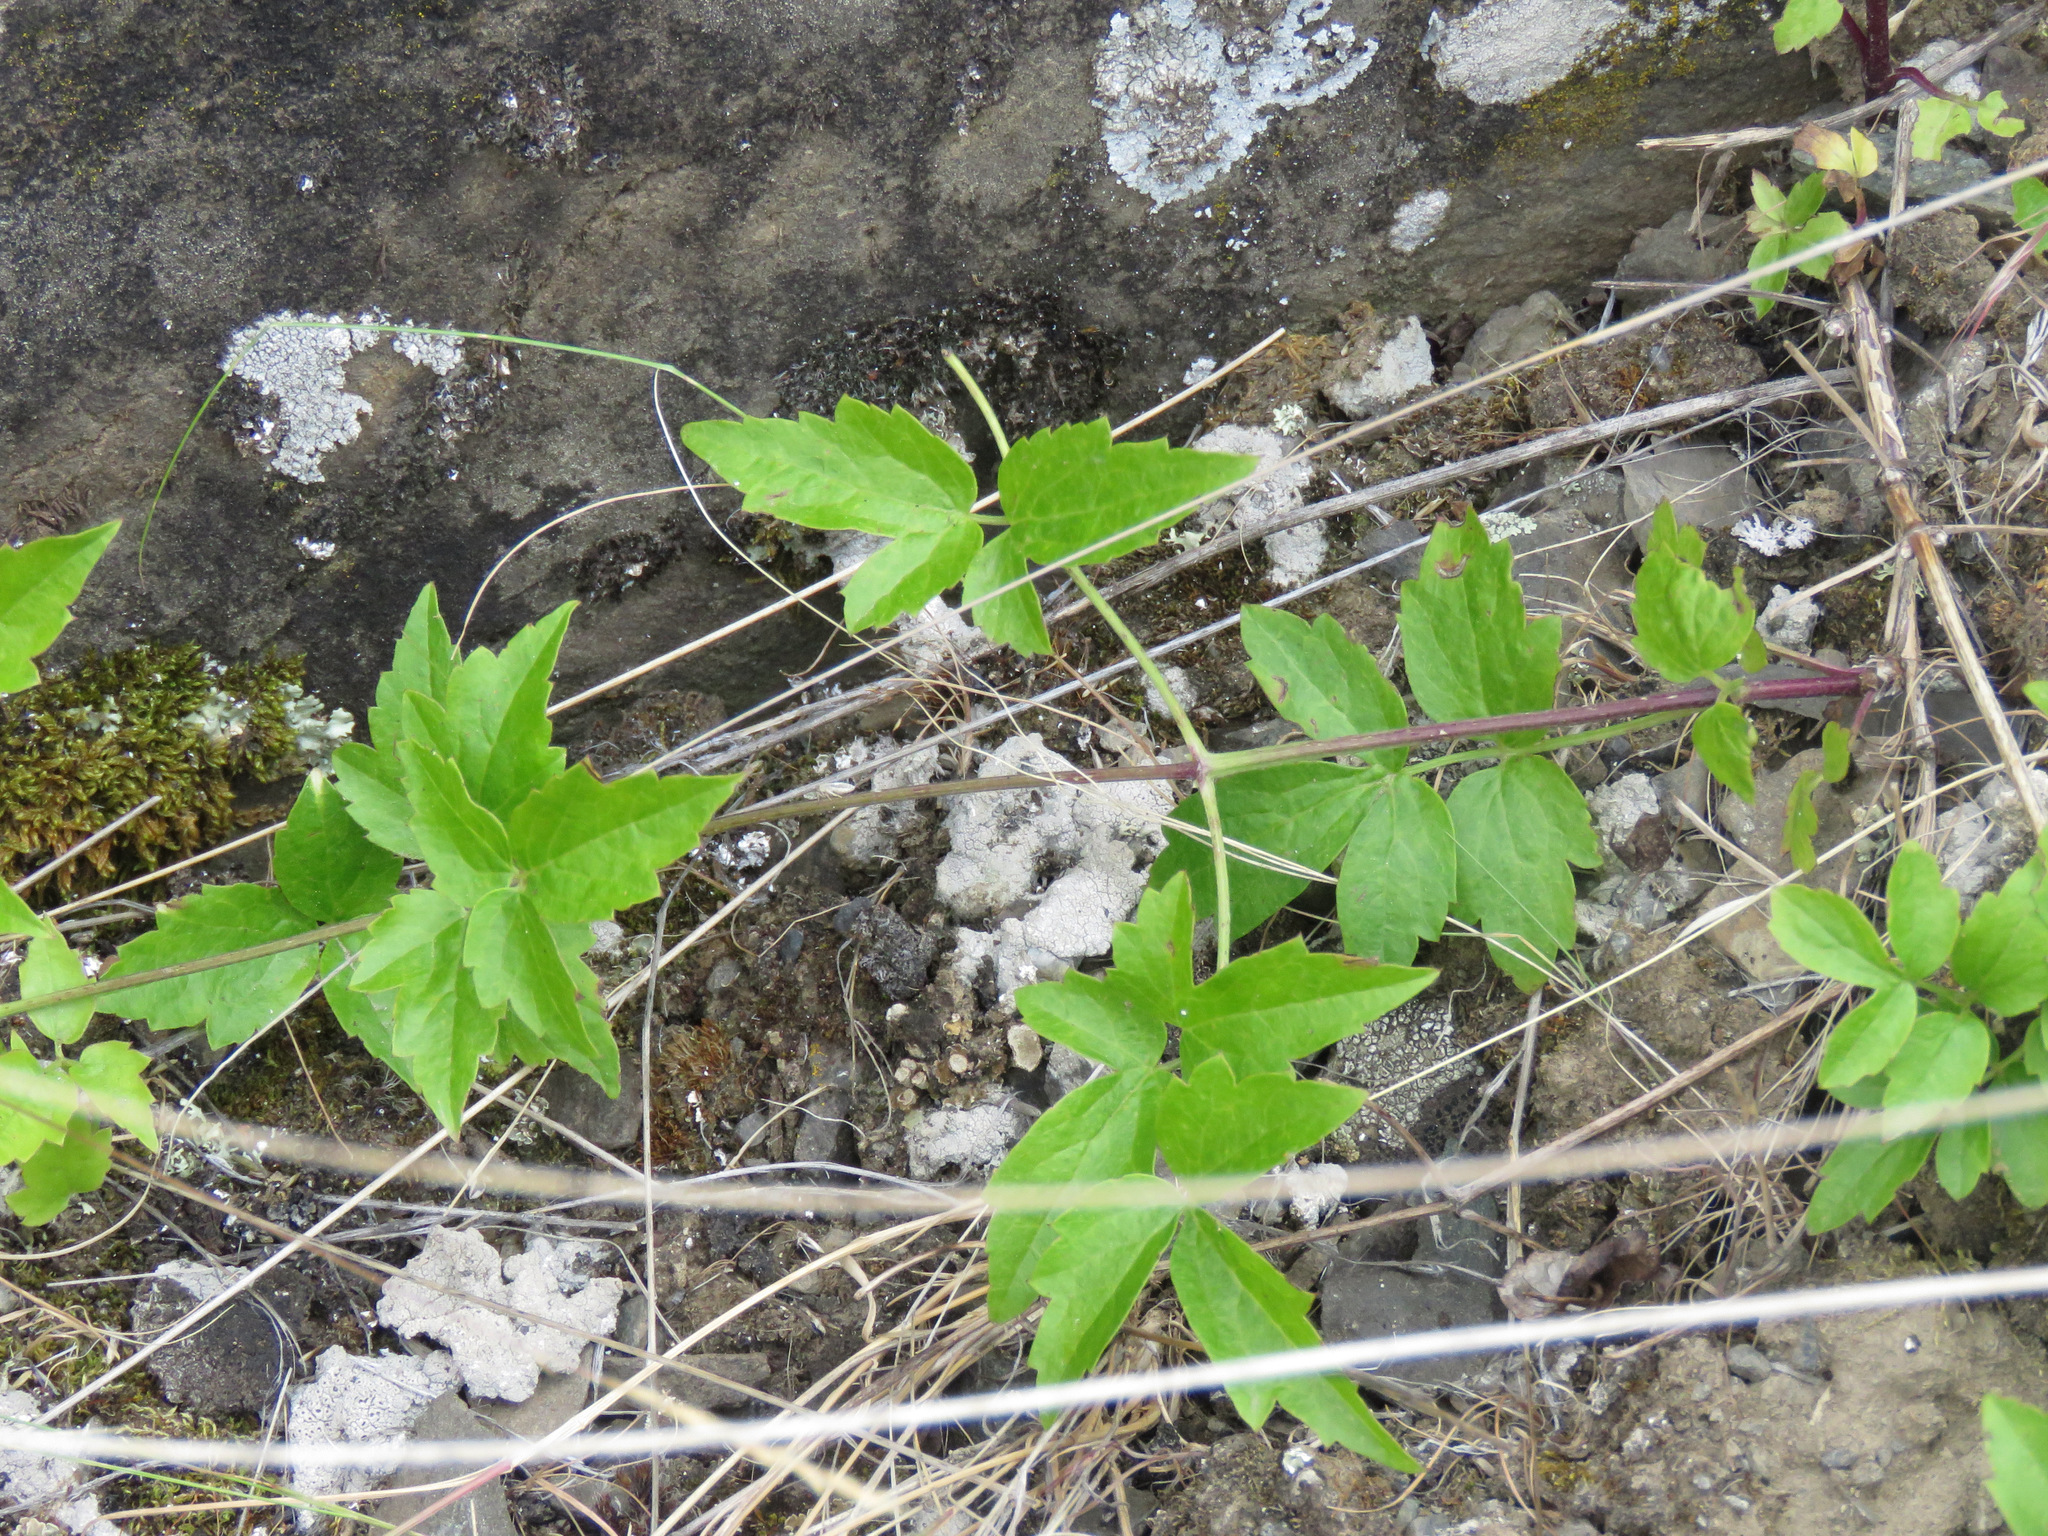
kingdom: Plantae
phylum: Tracheophyta
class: Magnoliopsida
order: Ranunculales
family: Ranunculaceae
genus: Clematis
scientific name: Clematis ligusticifolia
